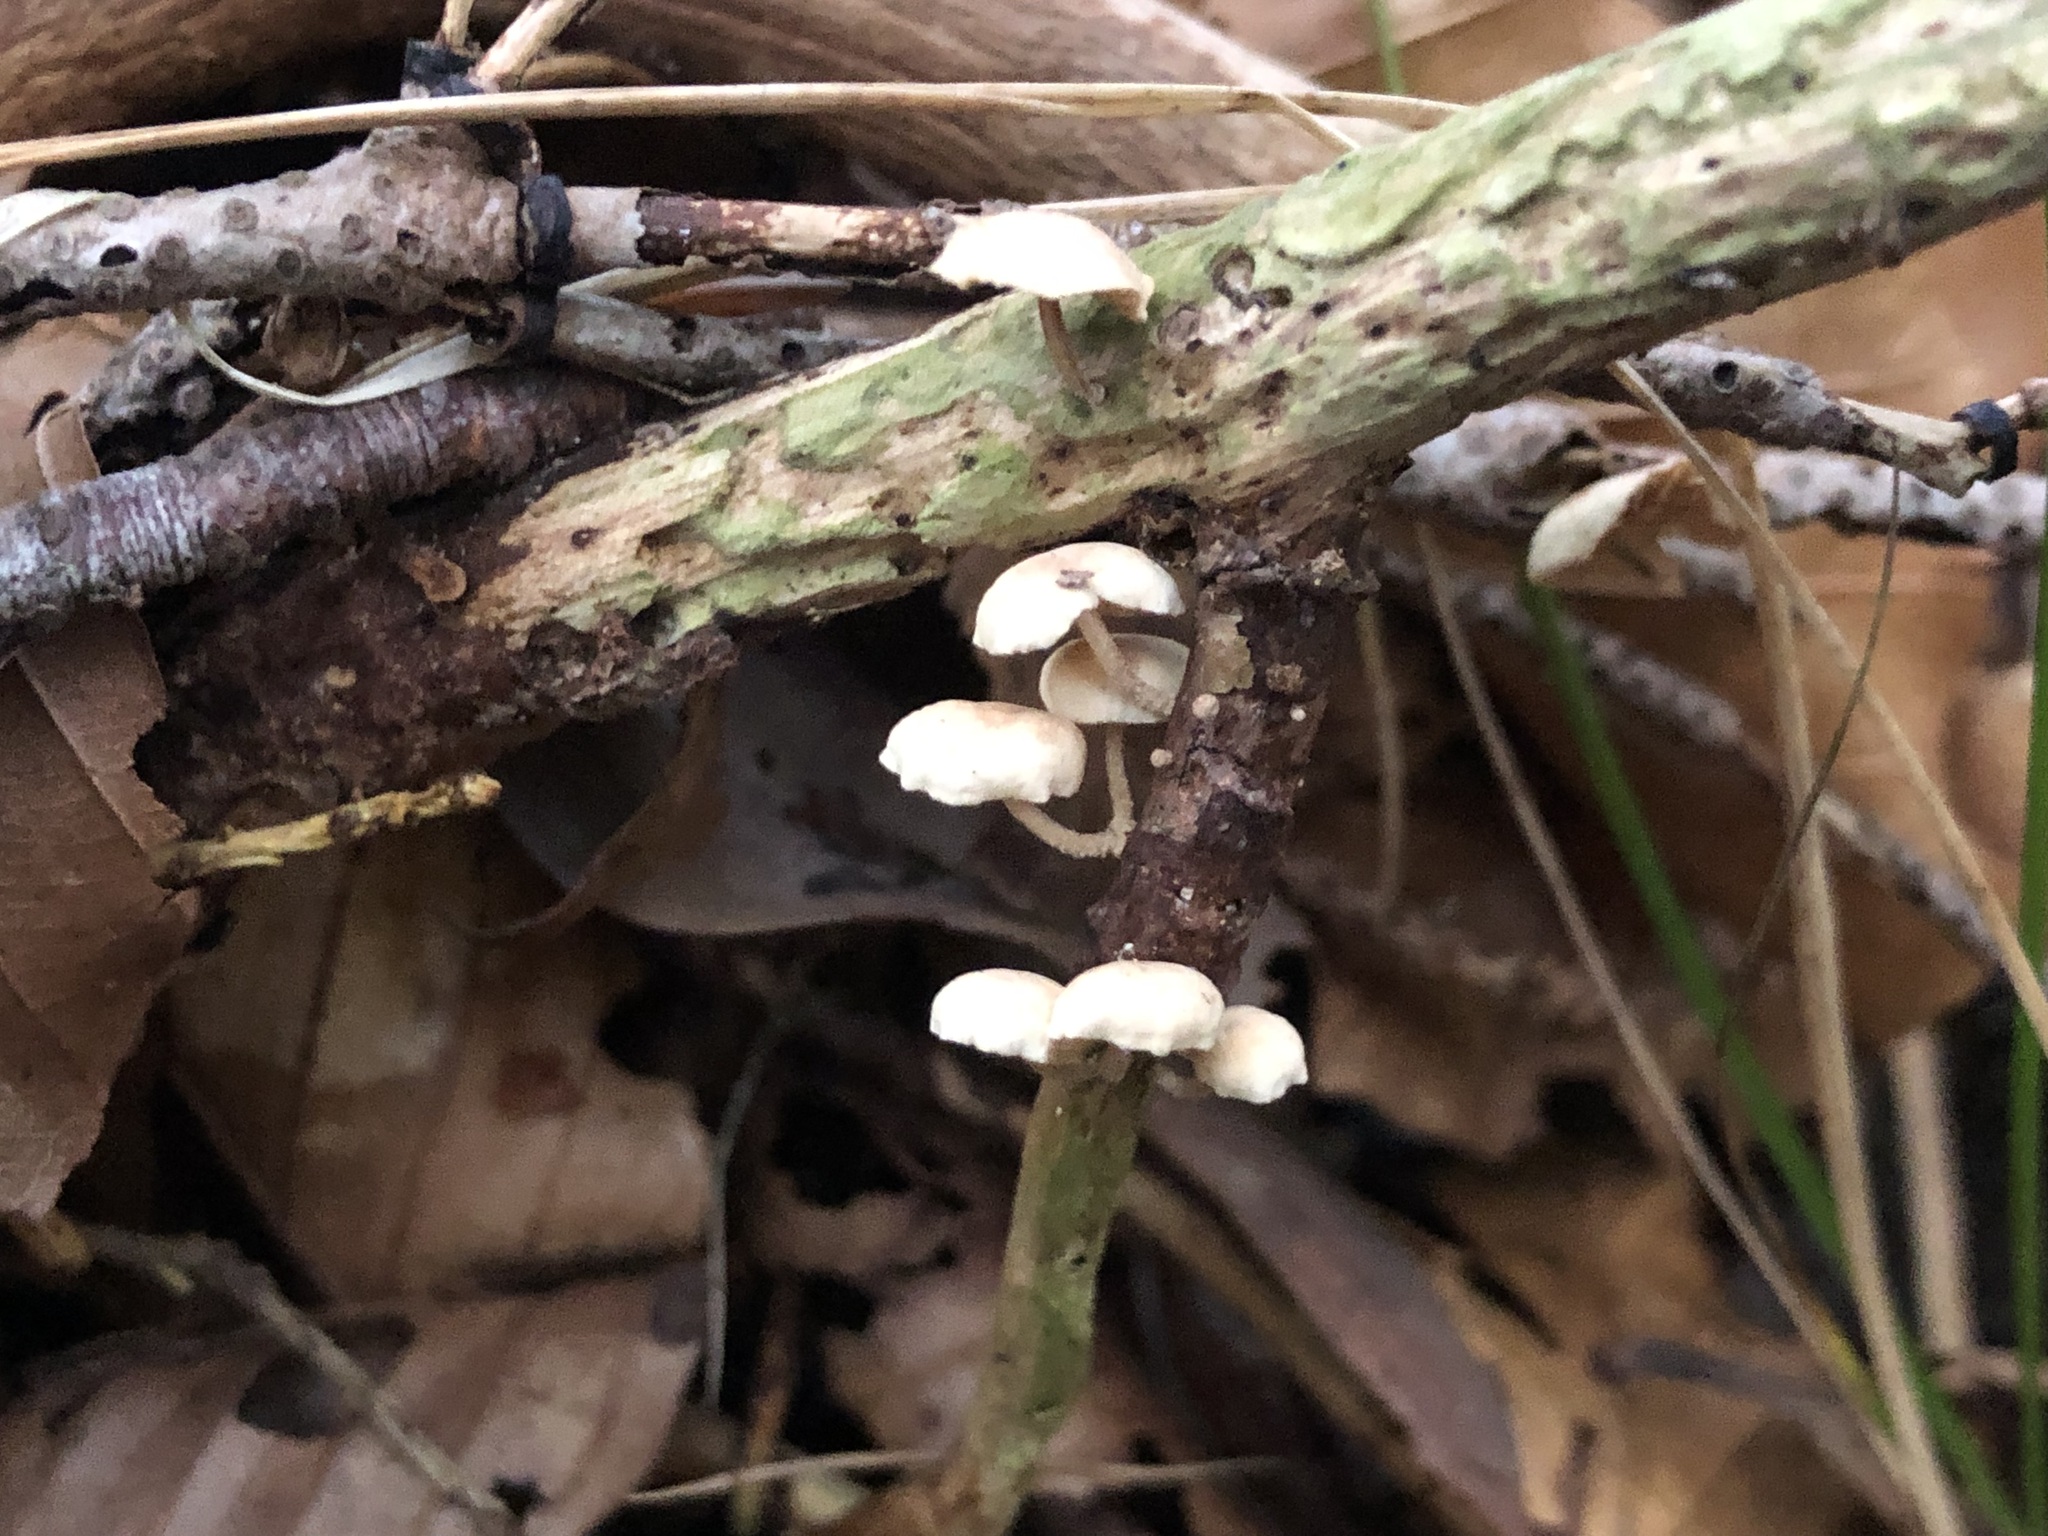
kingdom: Fungi
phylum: Basidiomycota
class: Agaricomycetes
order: Agaricales
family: Omphalotaceae
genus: Collybiopsis
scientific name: Collybiopsis ramealis
